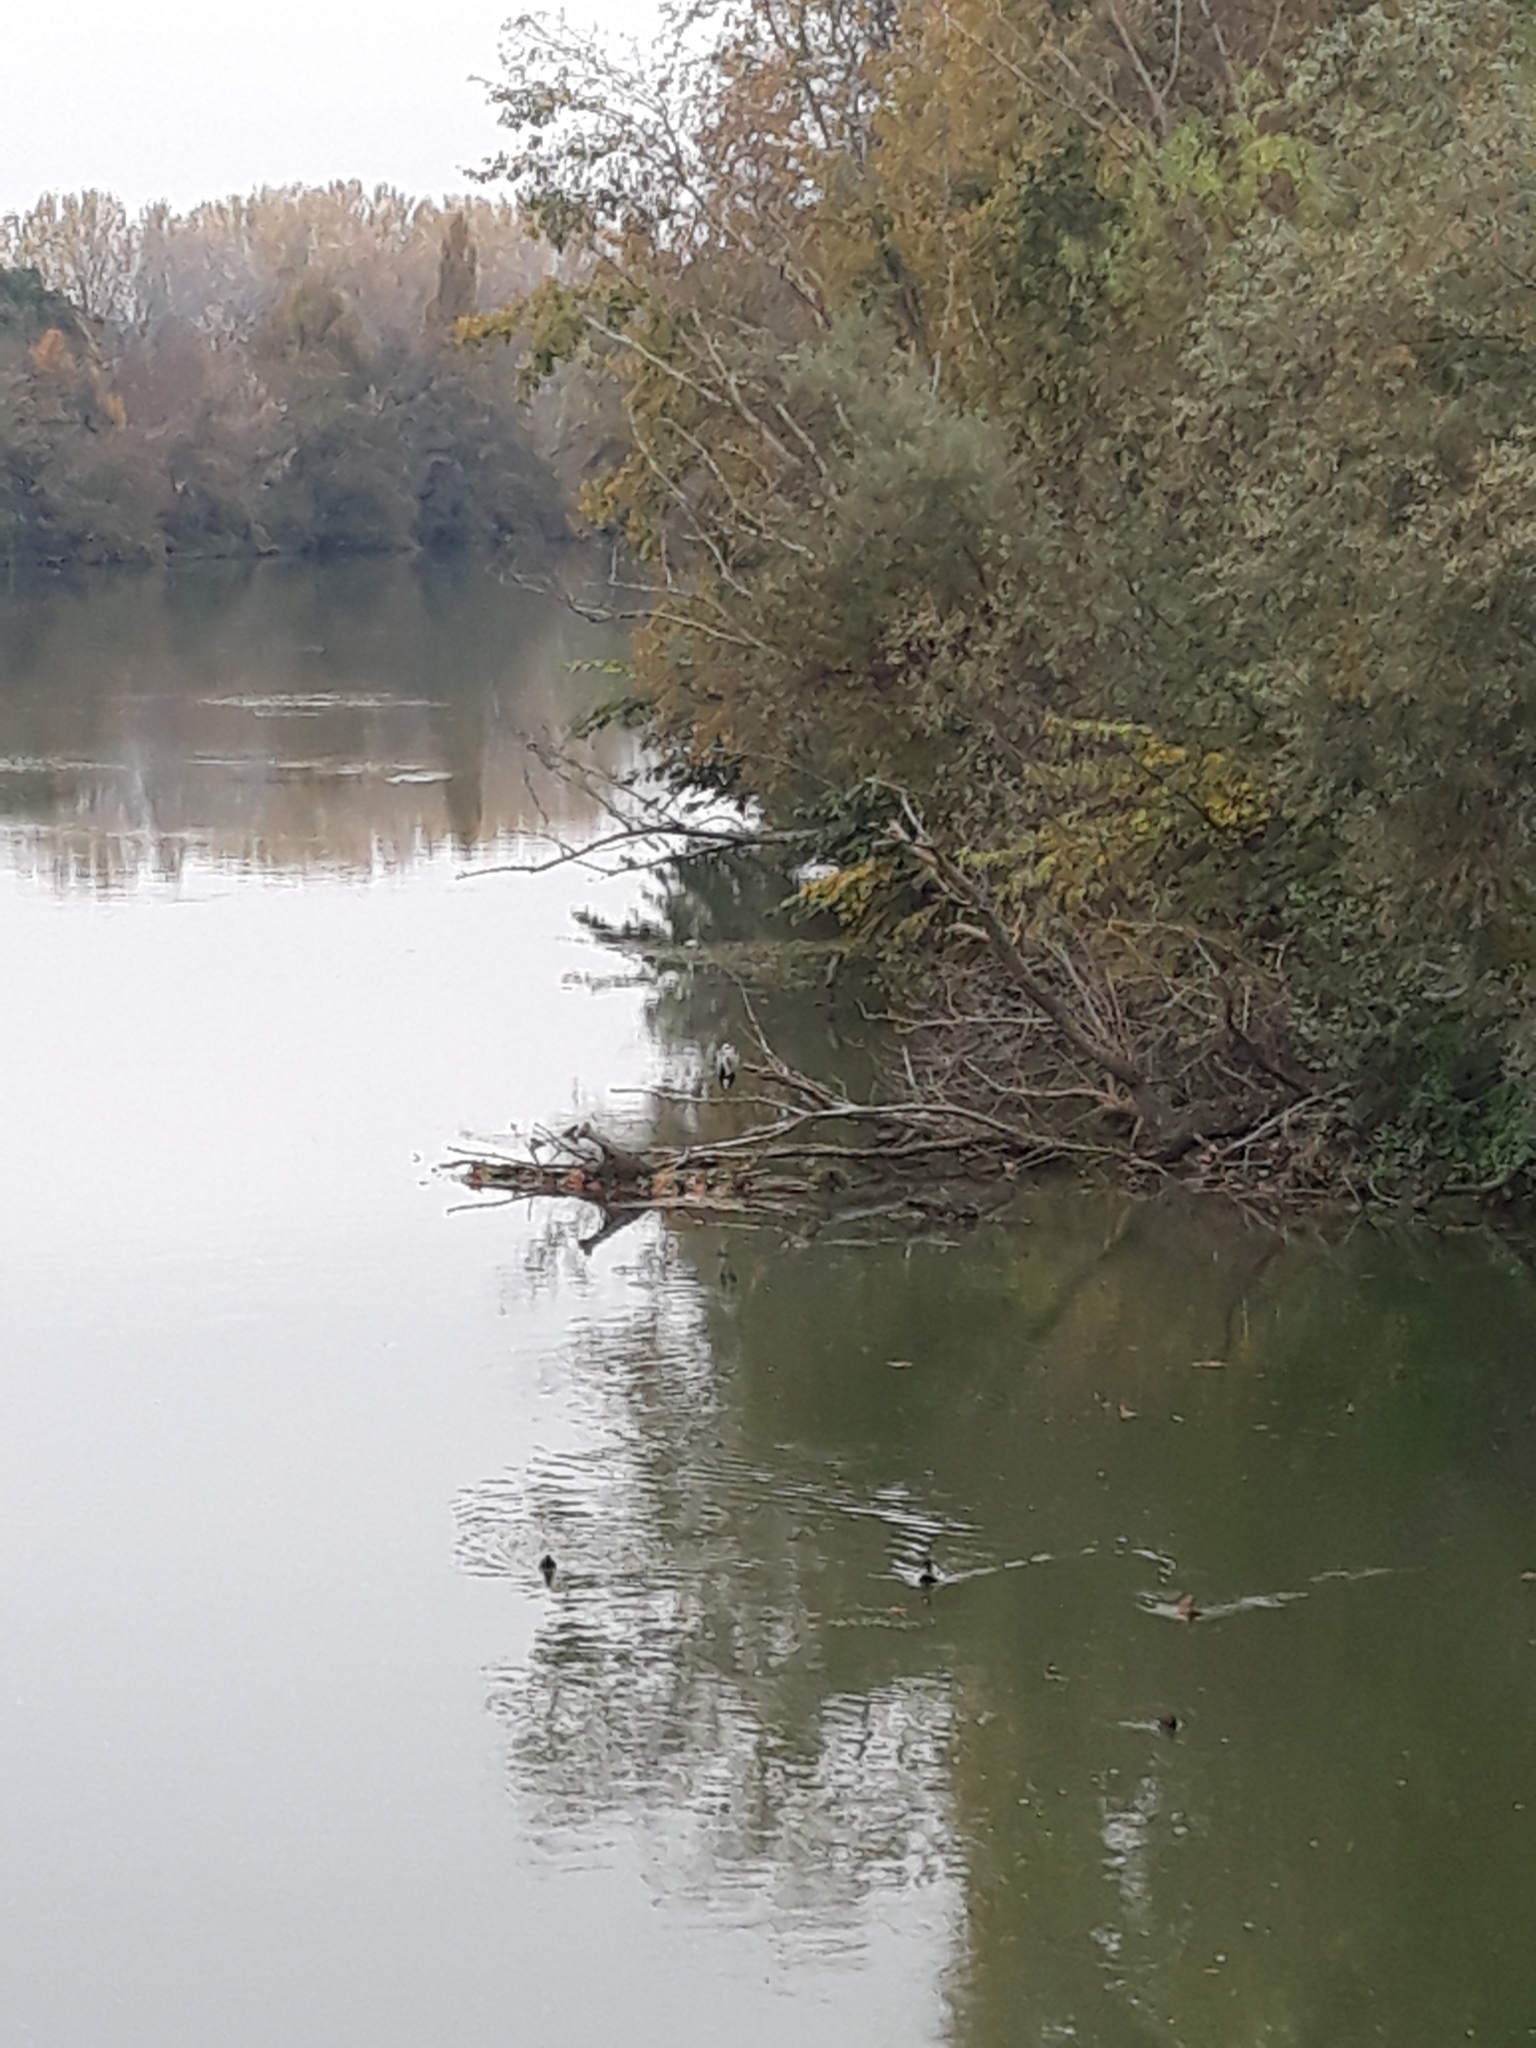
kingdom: Animalia
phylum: Chordata
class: Aves
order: Anseriformes
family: Anatidae
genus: Anas
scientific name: Anas platyrhynchos
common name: Mallard
